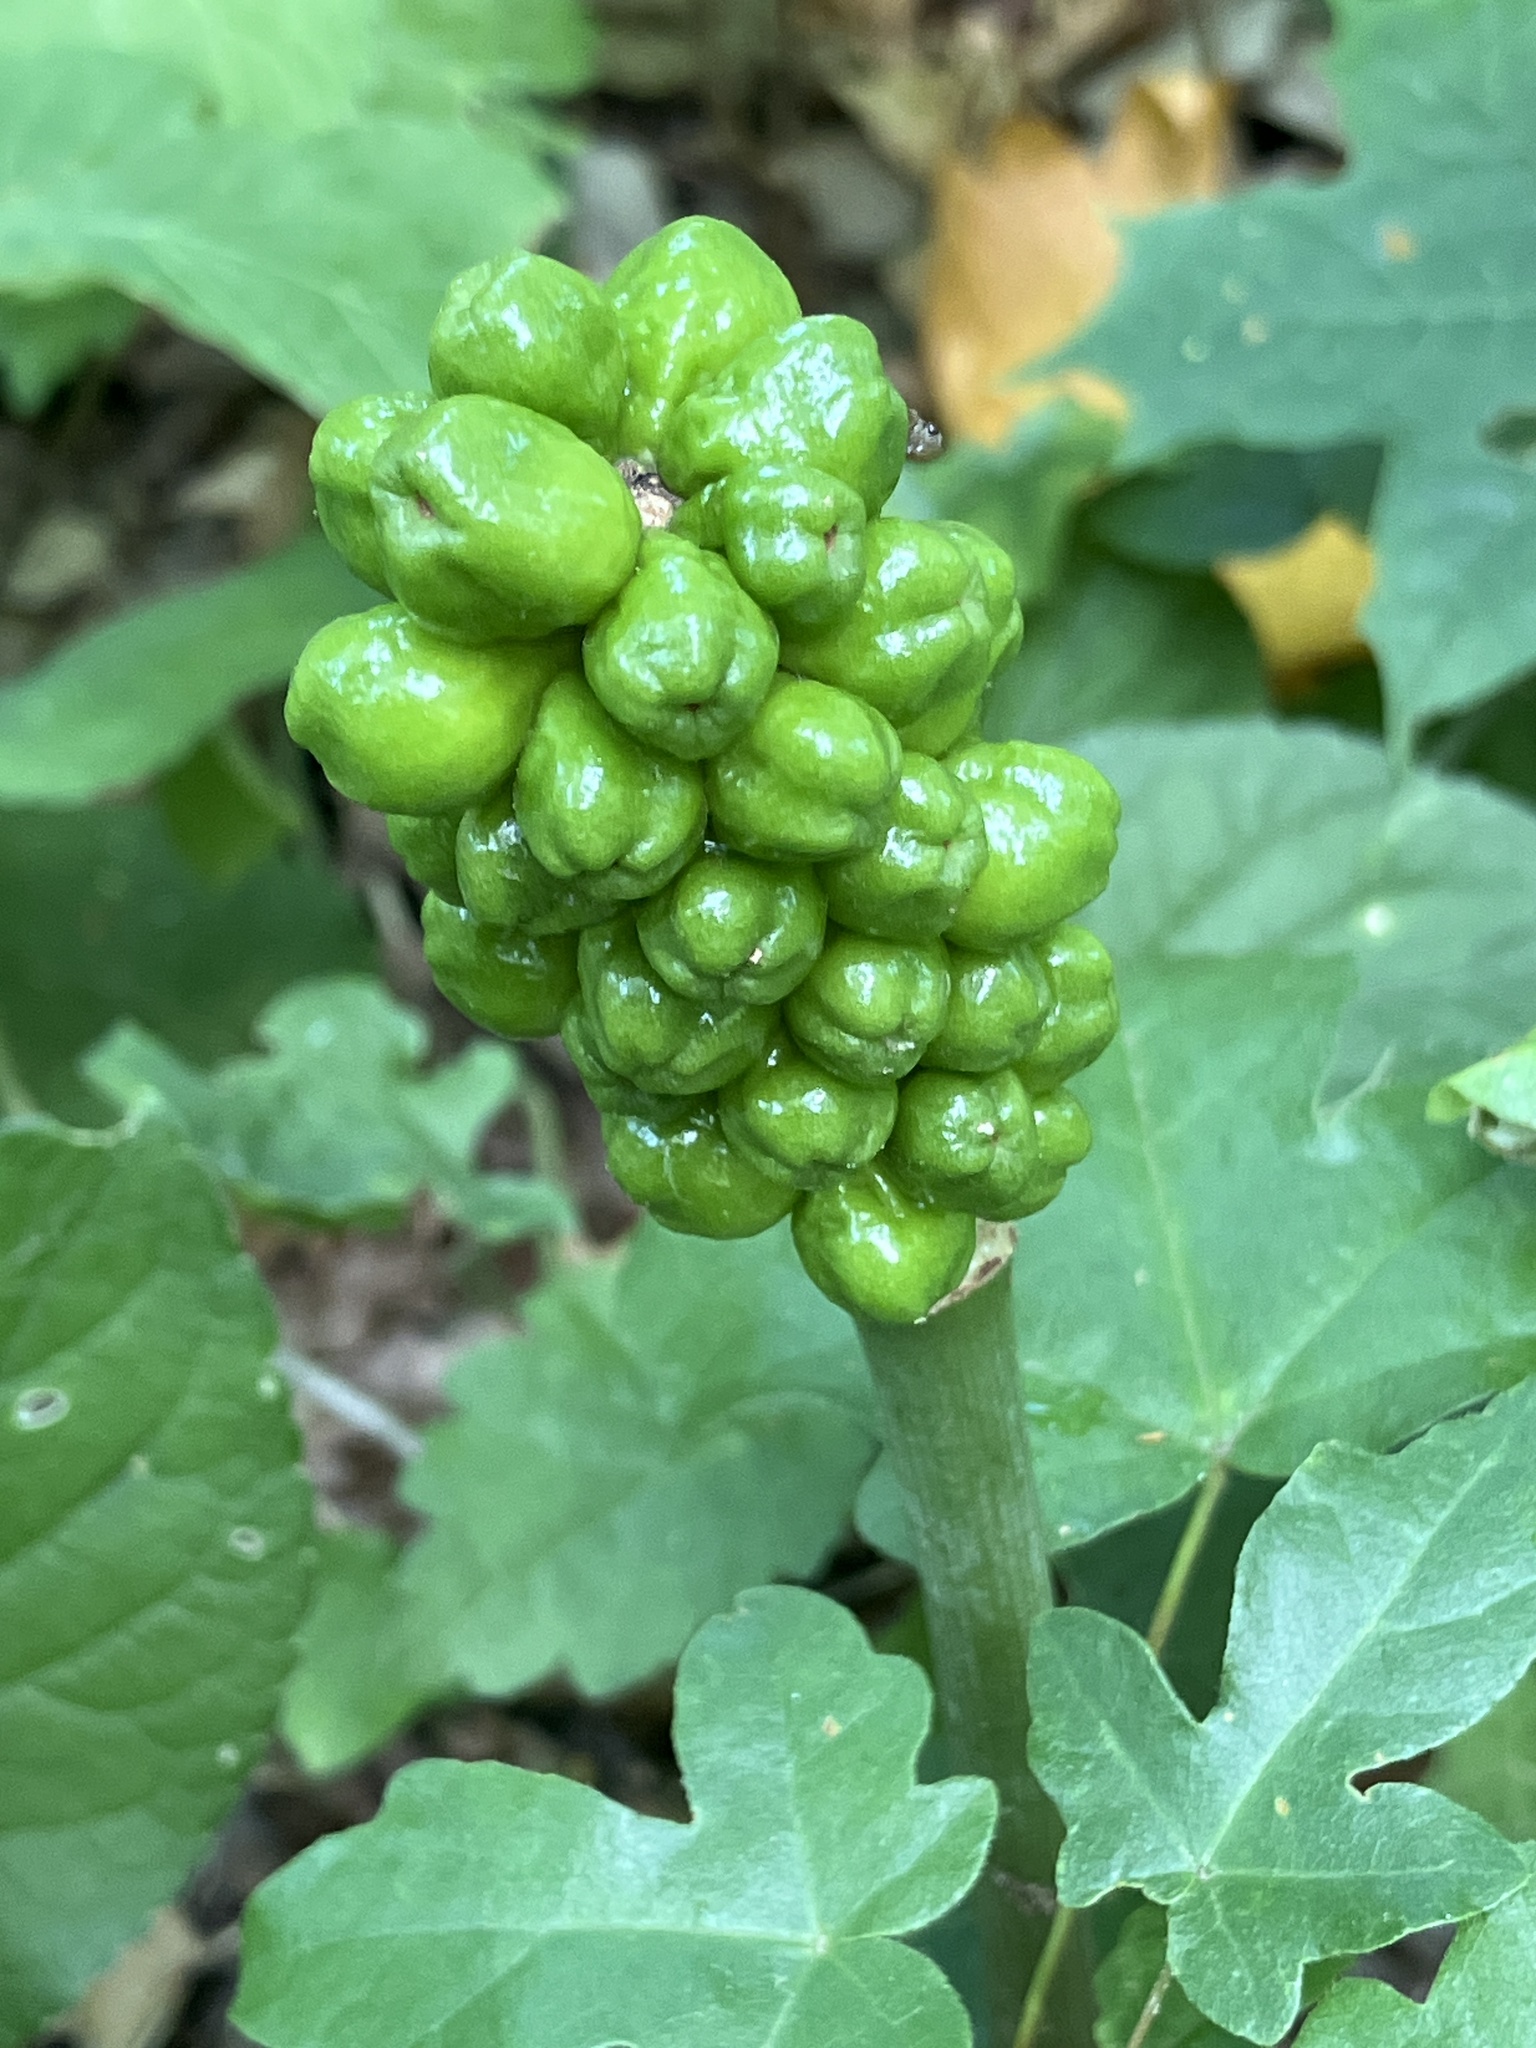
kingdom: Plantae
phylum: Tracheophyta
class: Liliopsida
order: Alismatales
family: Araceae
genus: Arum
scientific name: Arum cylindraceum
